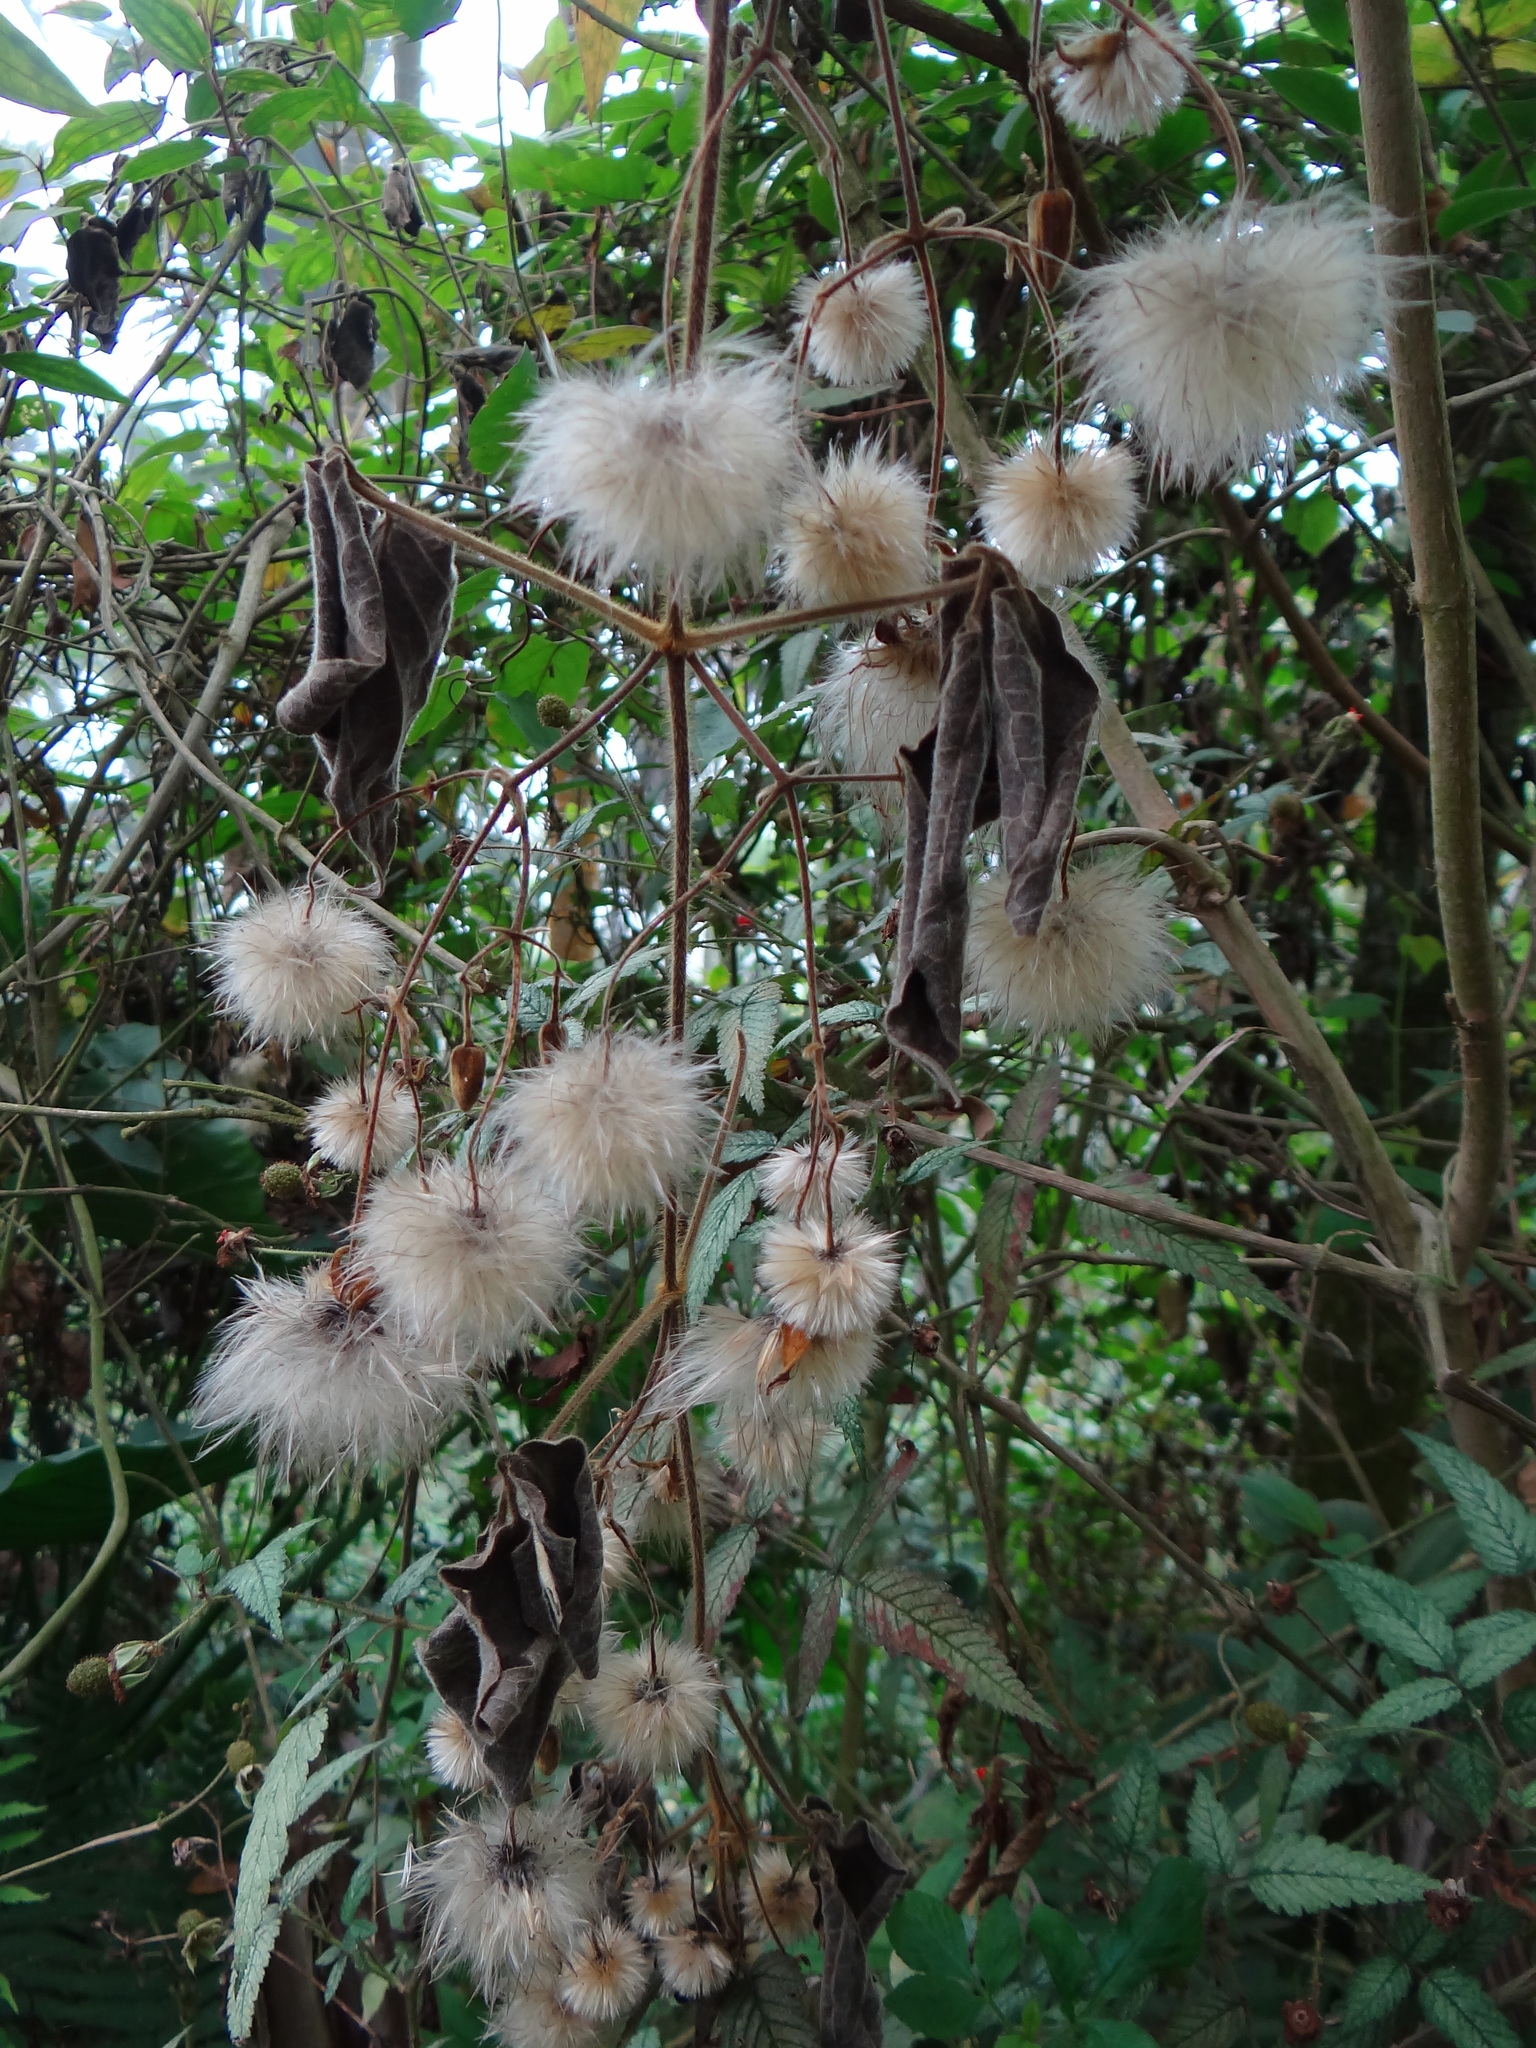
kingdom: Plantae
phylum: Tracheophyta
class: Magnoliopsida
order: Ranunculales
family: Ranunculaceae
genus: Clematis
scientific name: Clematis leschenaultiana
